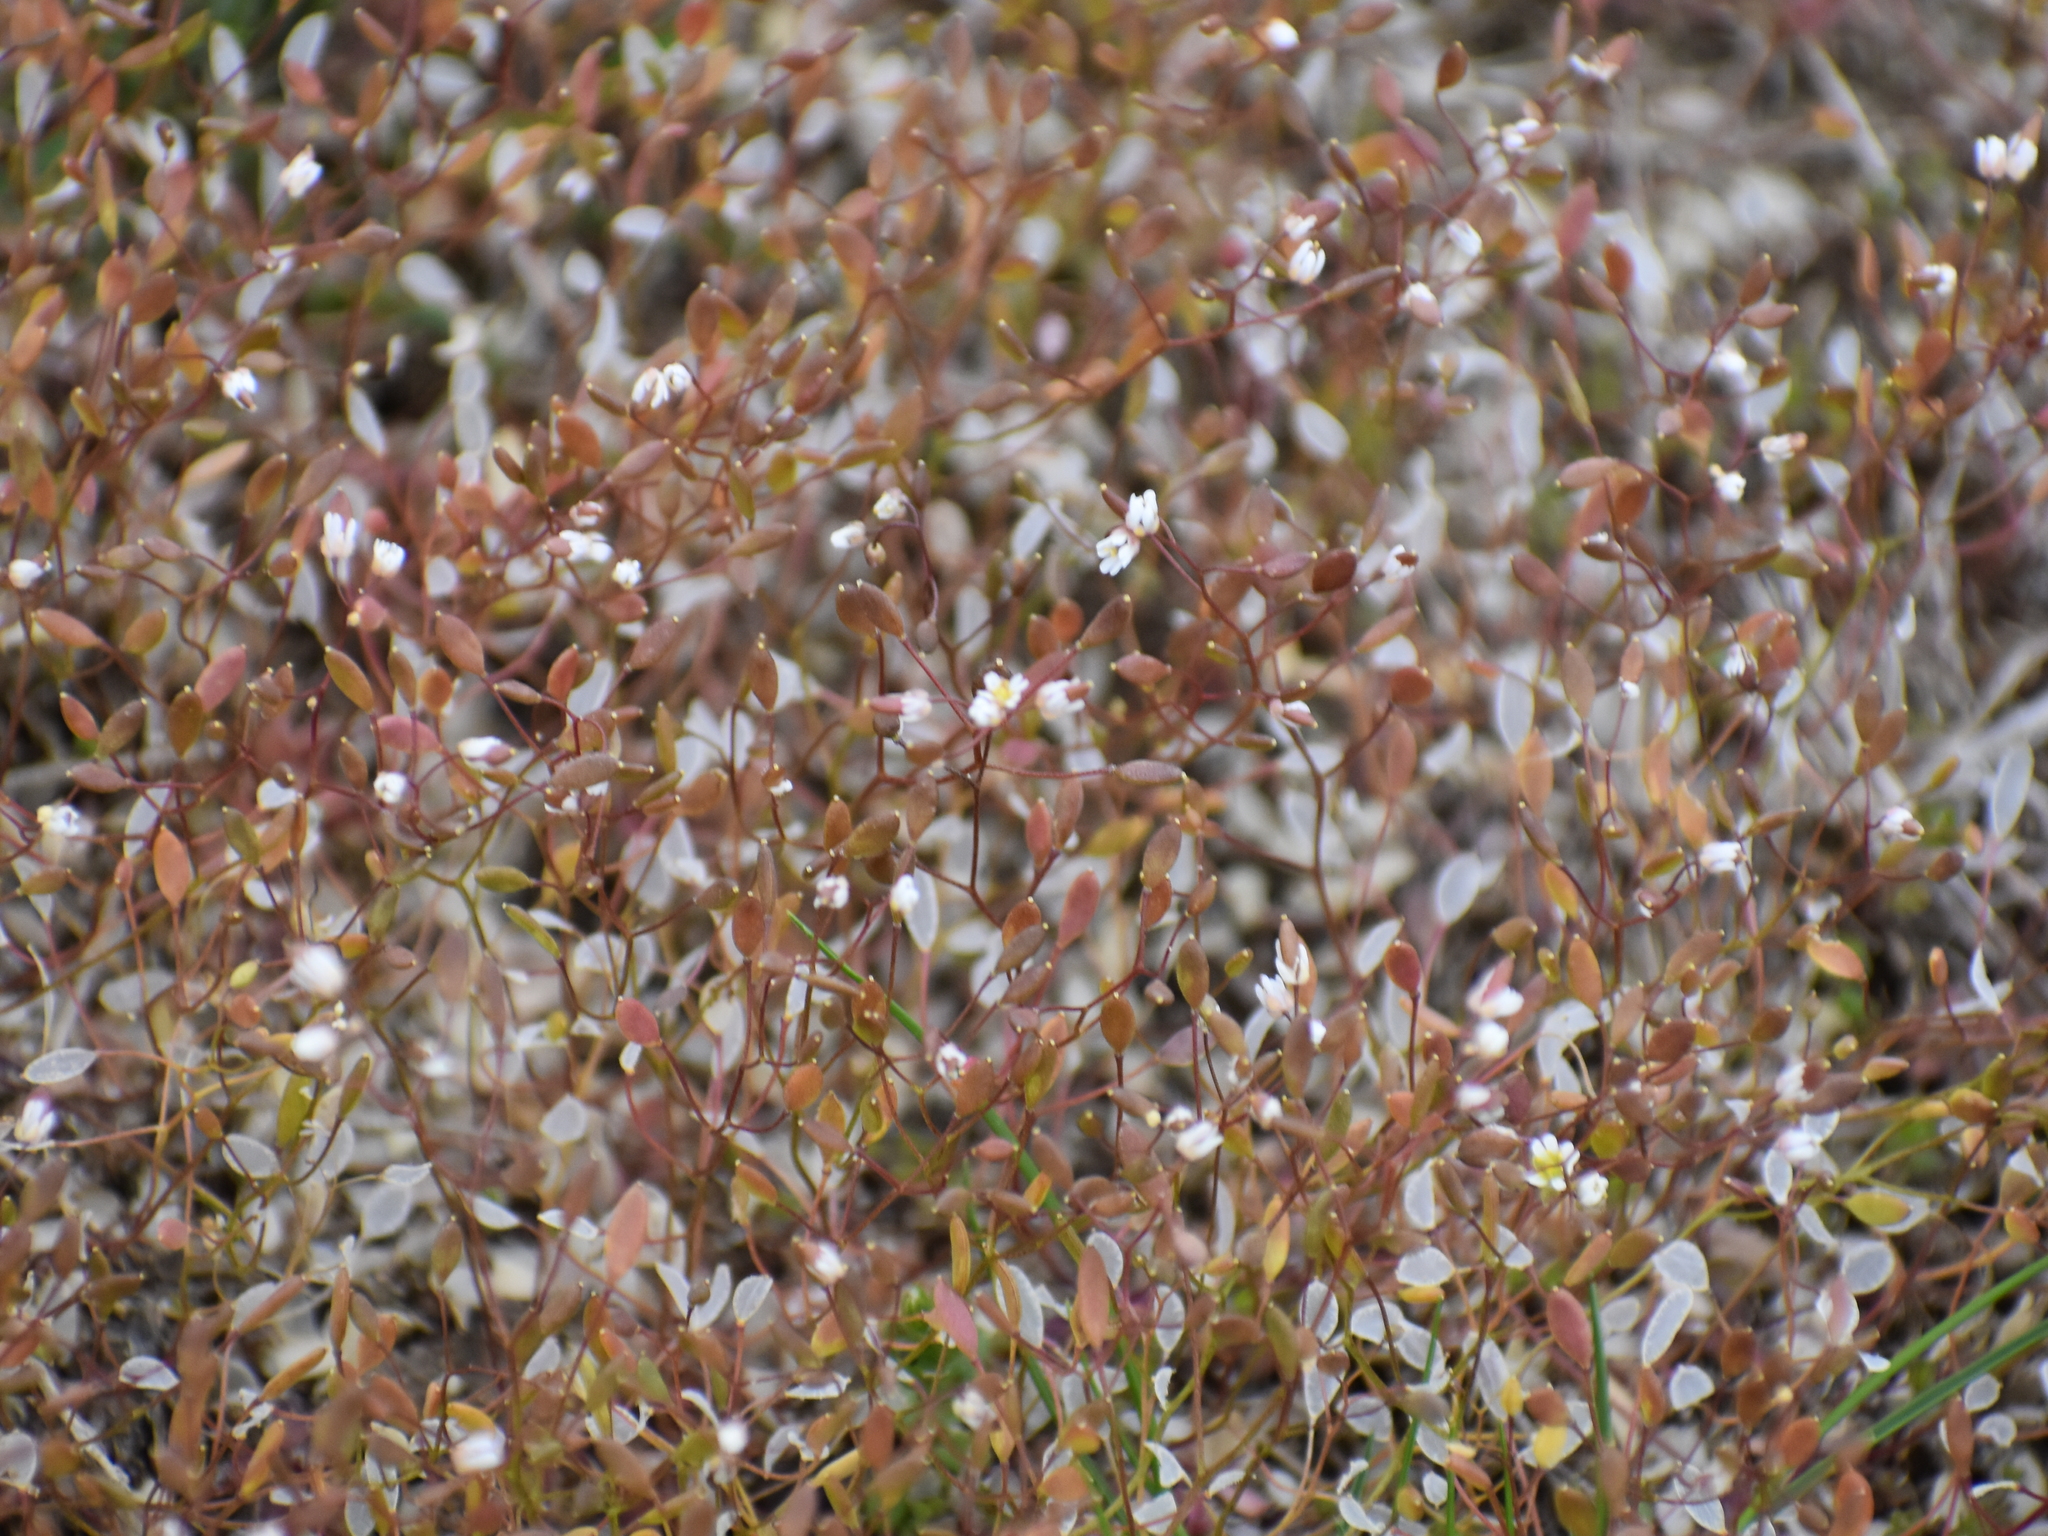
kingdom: Plantae
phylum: Tracheophyta
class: Magnoliopsida
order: Brassicales
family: Brassicaceae
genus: Draba
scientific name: Draba verna
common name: Spring draba
